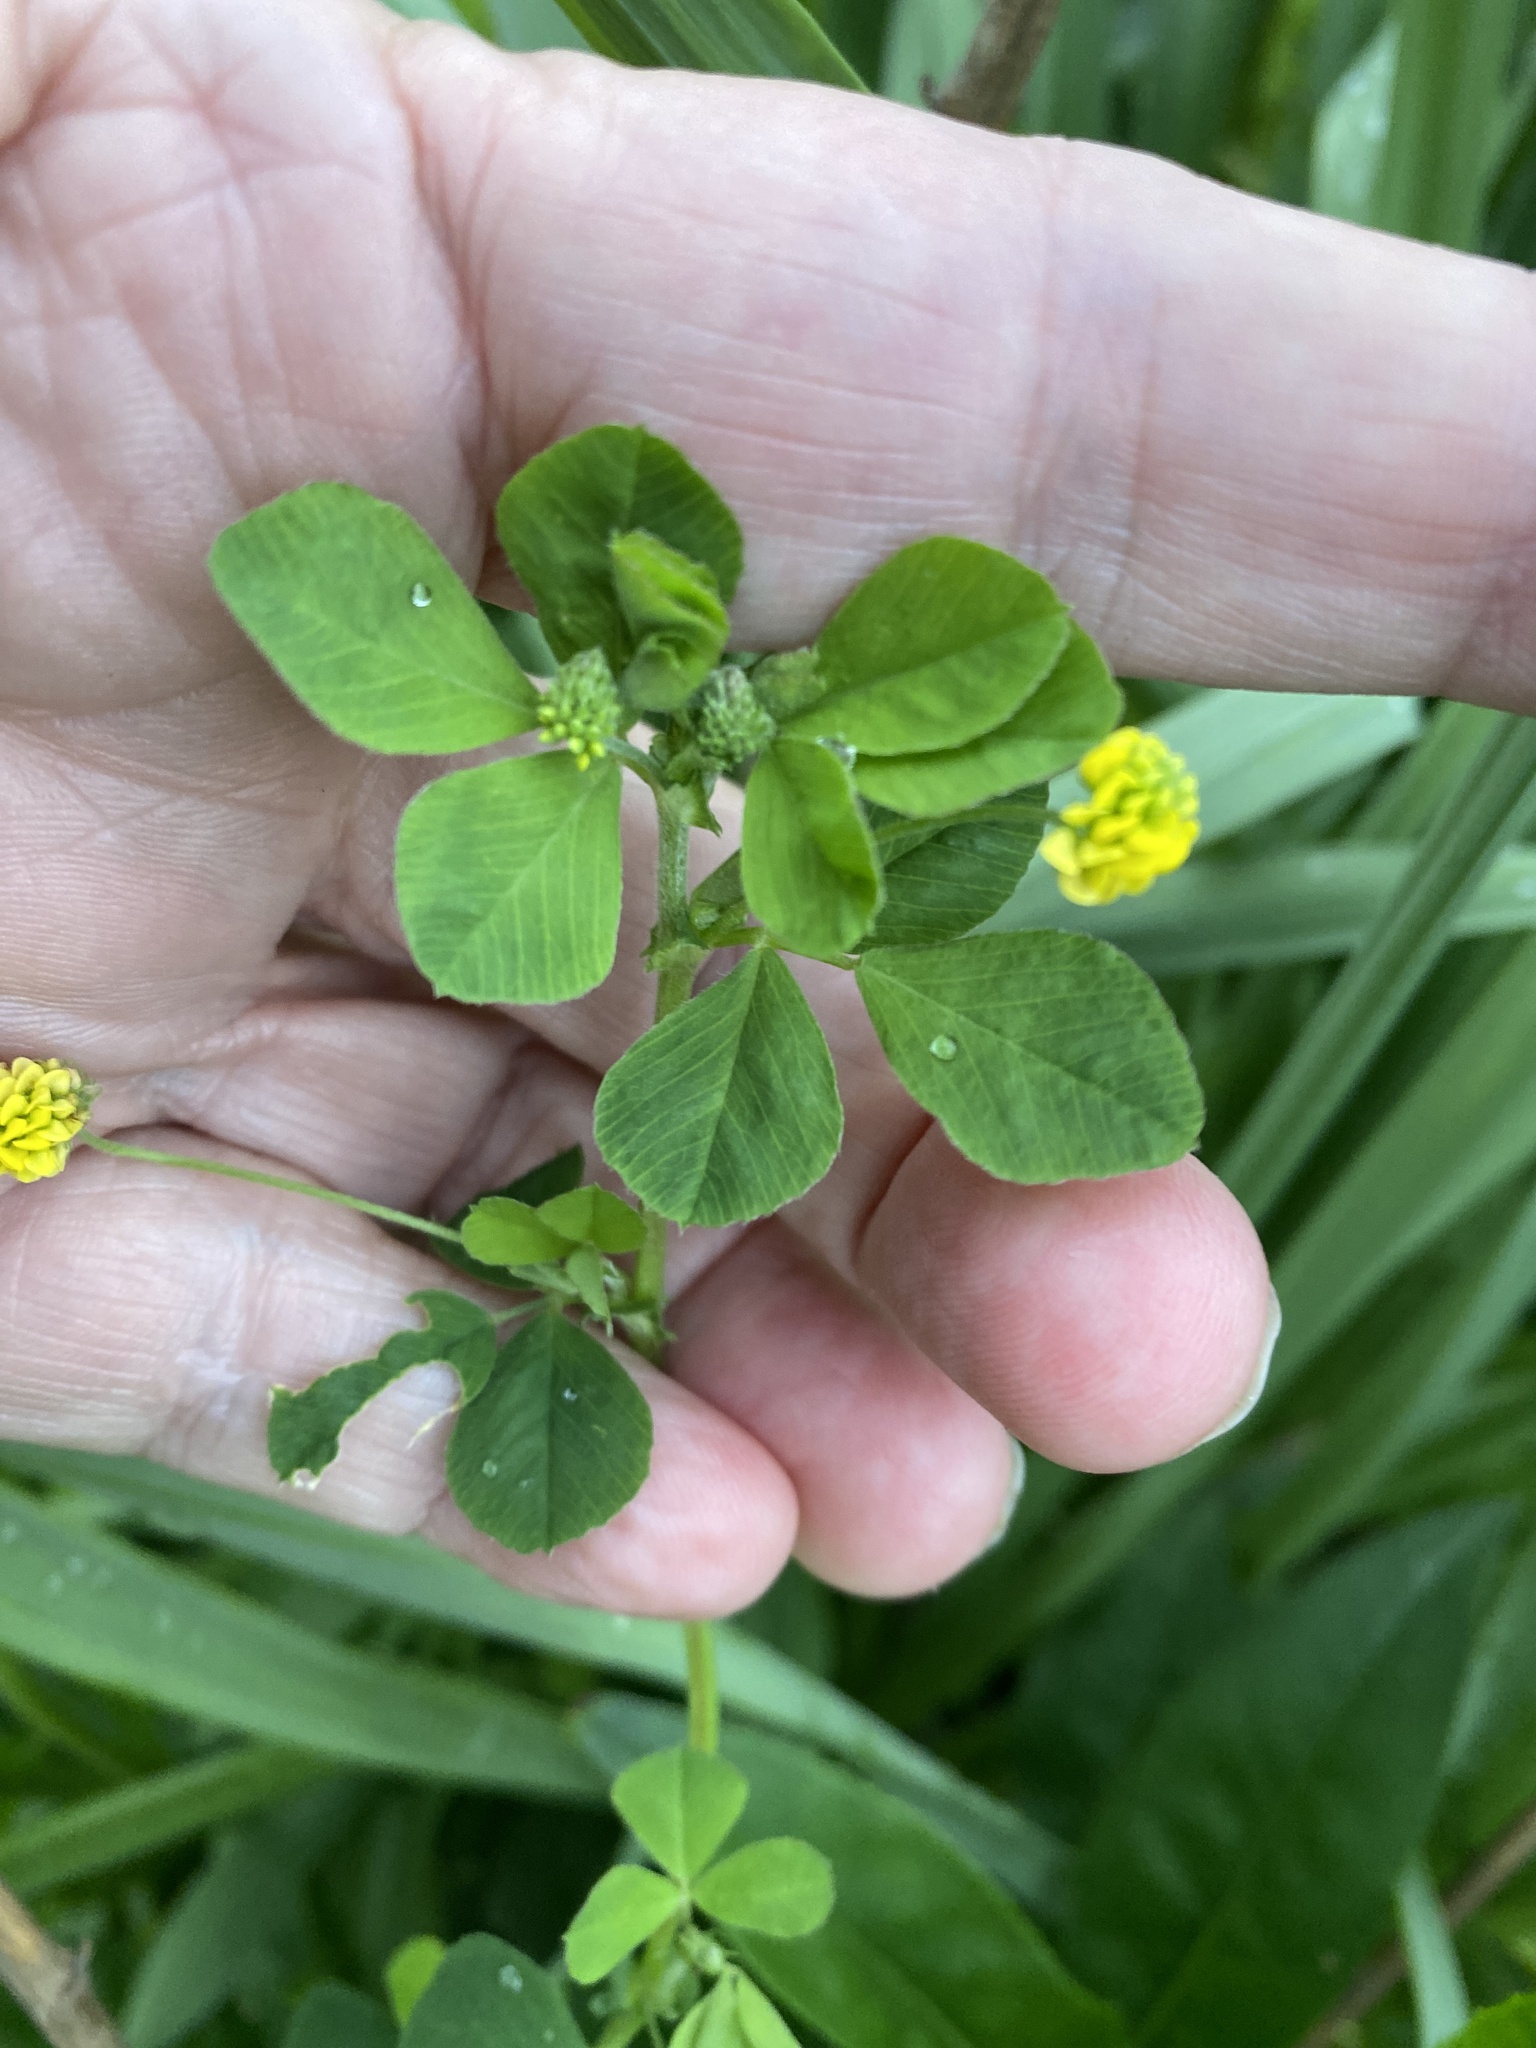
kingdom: Plantae
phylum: Tracheophyta
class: Magnoliopsida
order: Fabales
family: Fabaceae
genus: Medicago
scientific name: Medicago lupulina
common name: Black medick
